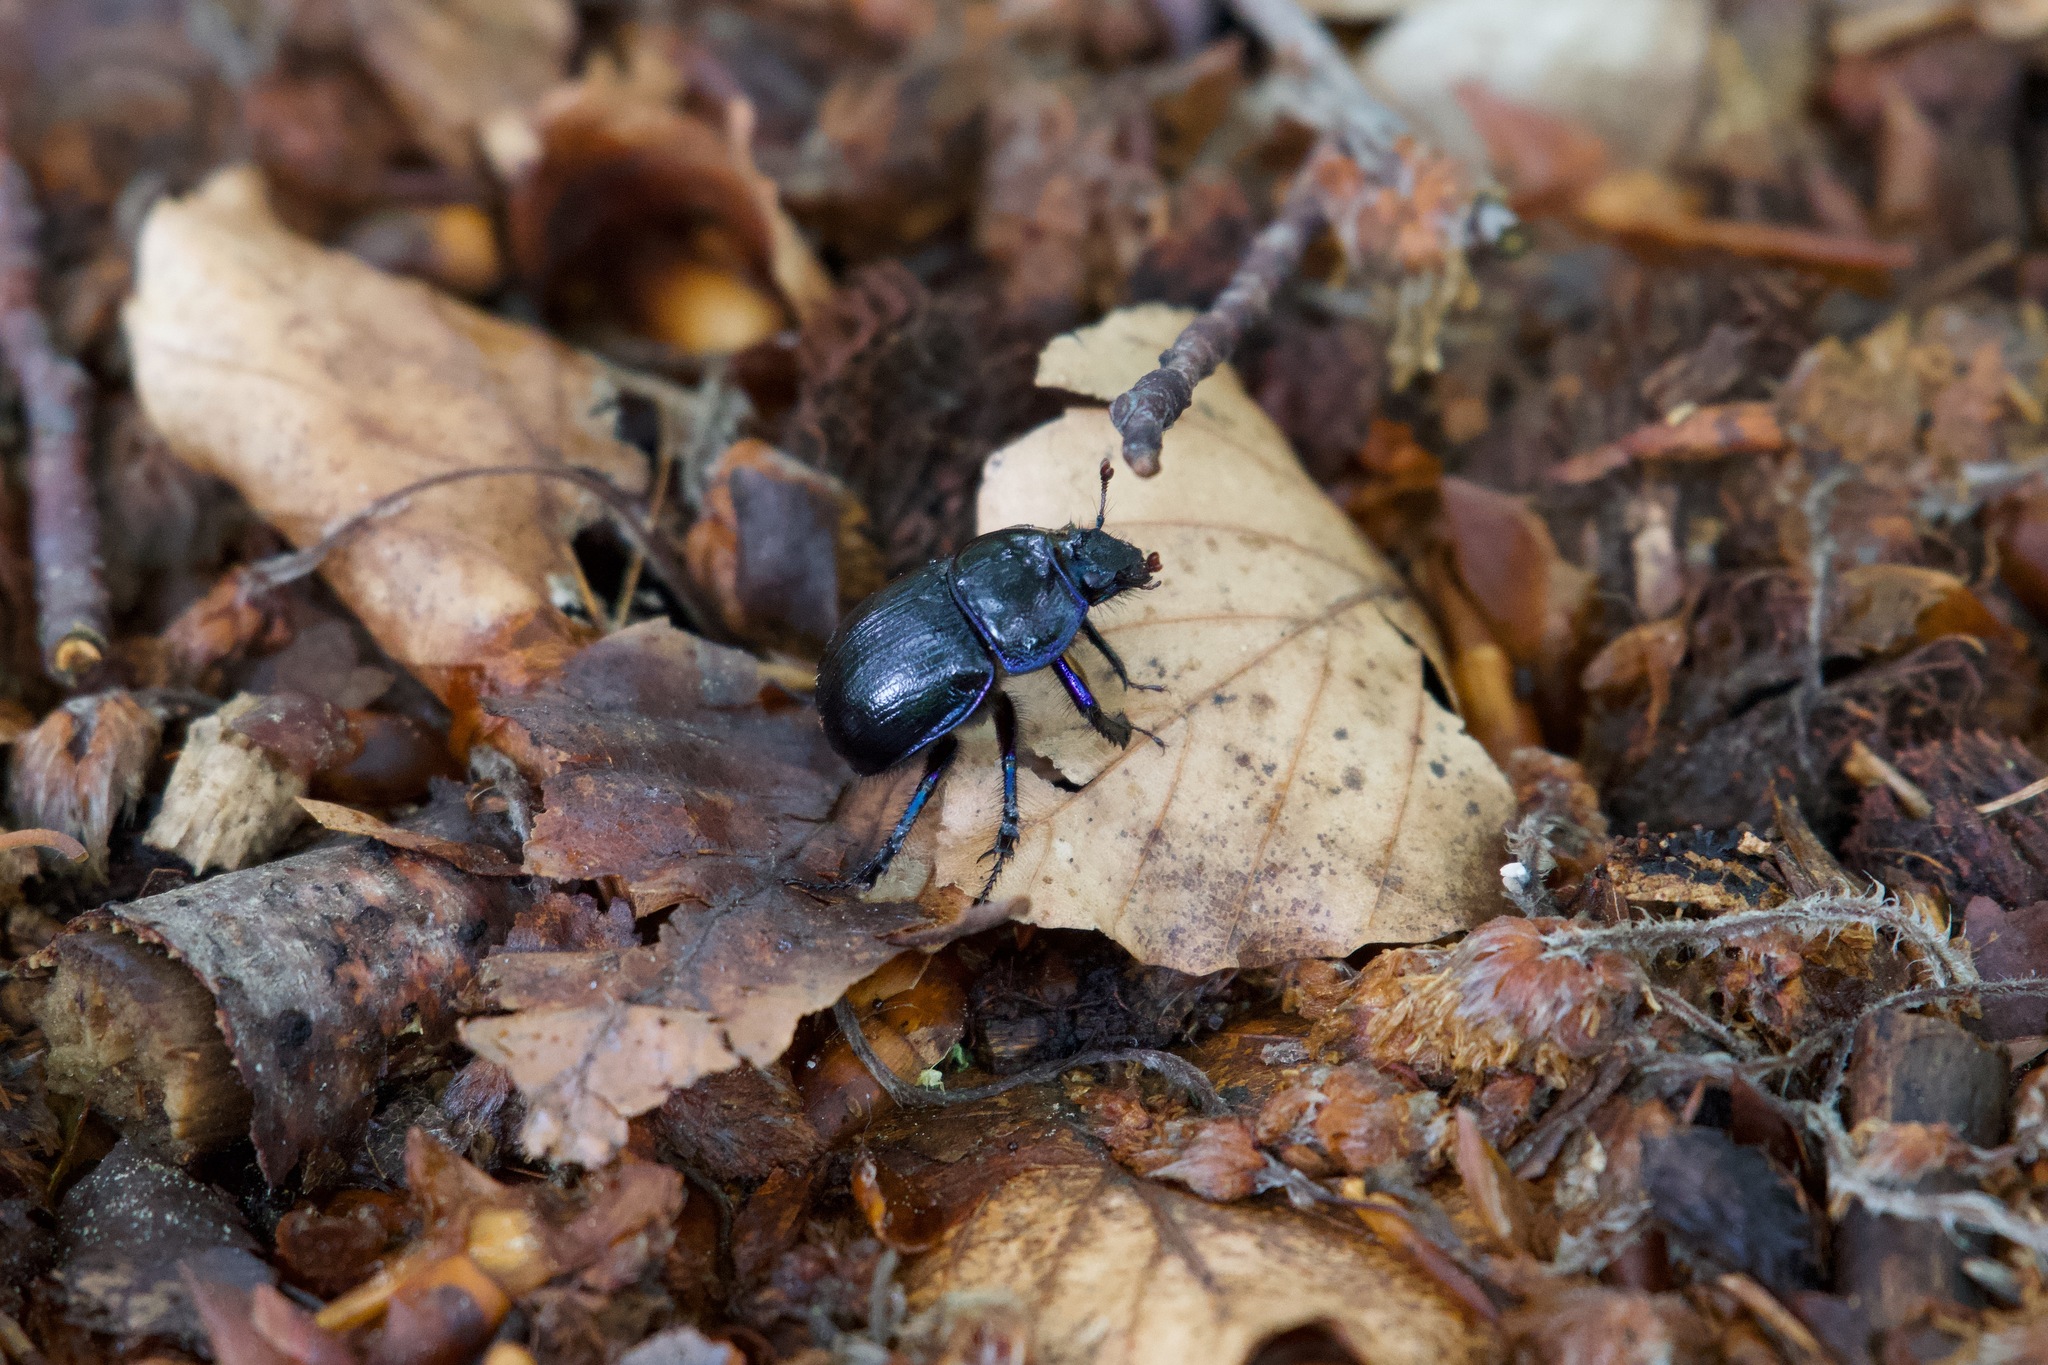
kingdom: Animalia
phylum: Arthropoda
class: Insecta
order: Coleoptera
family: Geotrupidae
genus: Anoplotrupes
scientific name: Anoplotrupes stercorosus
